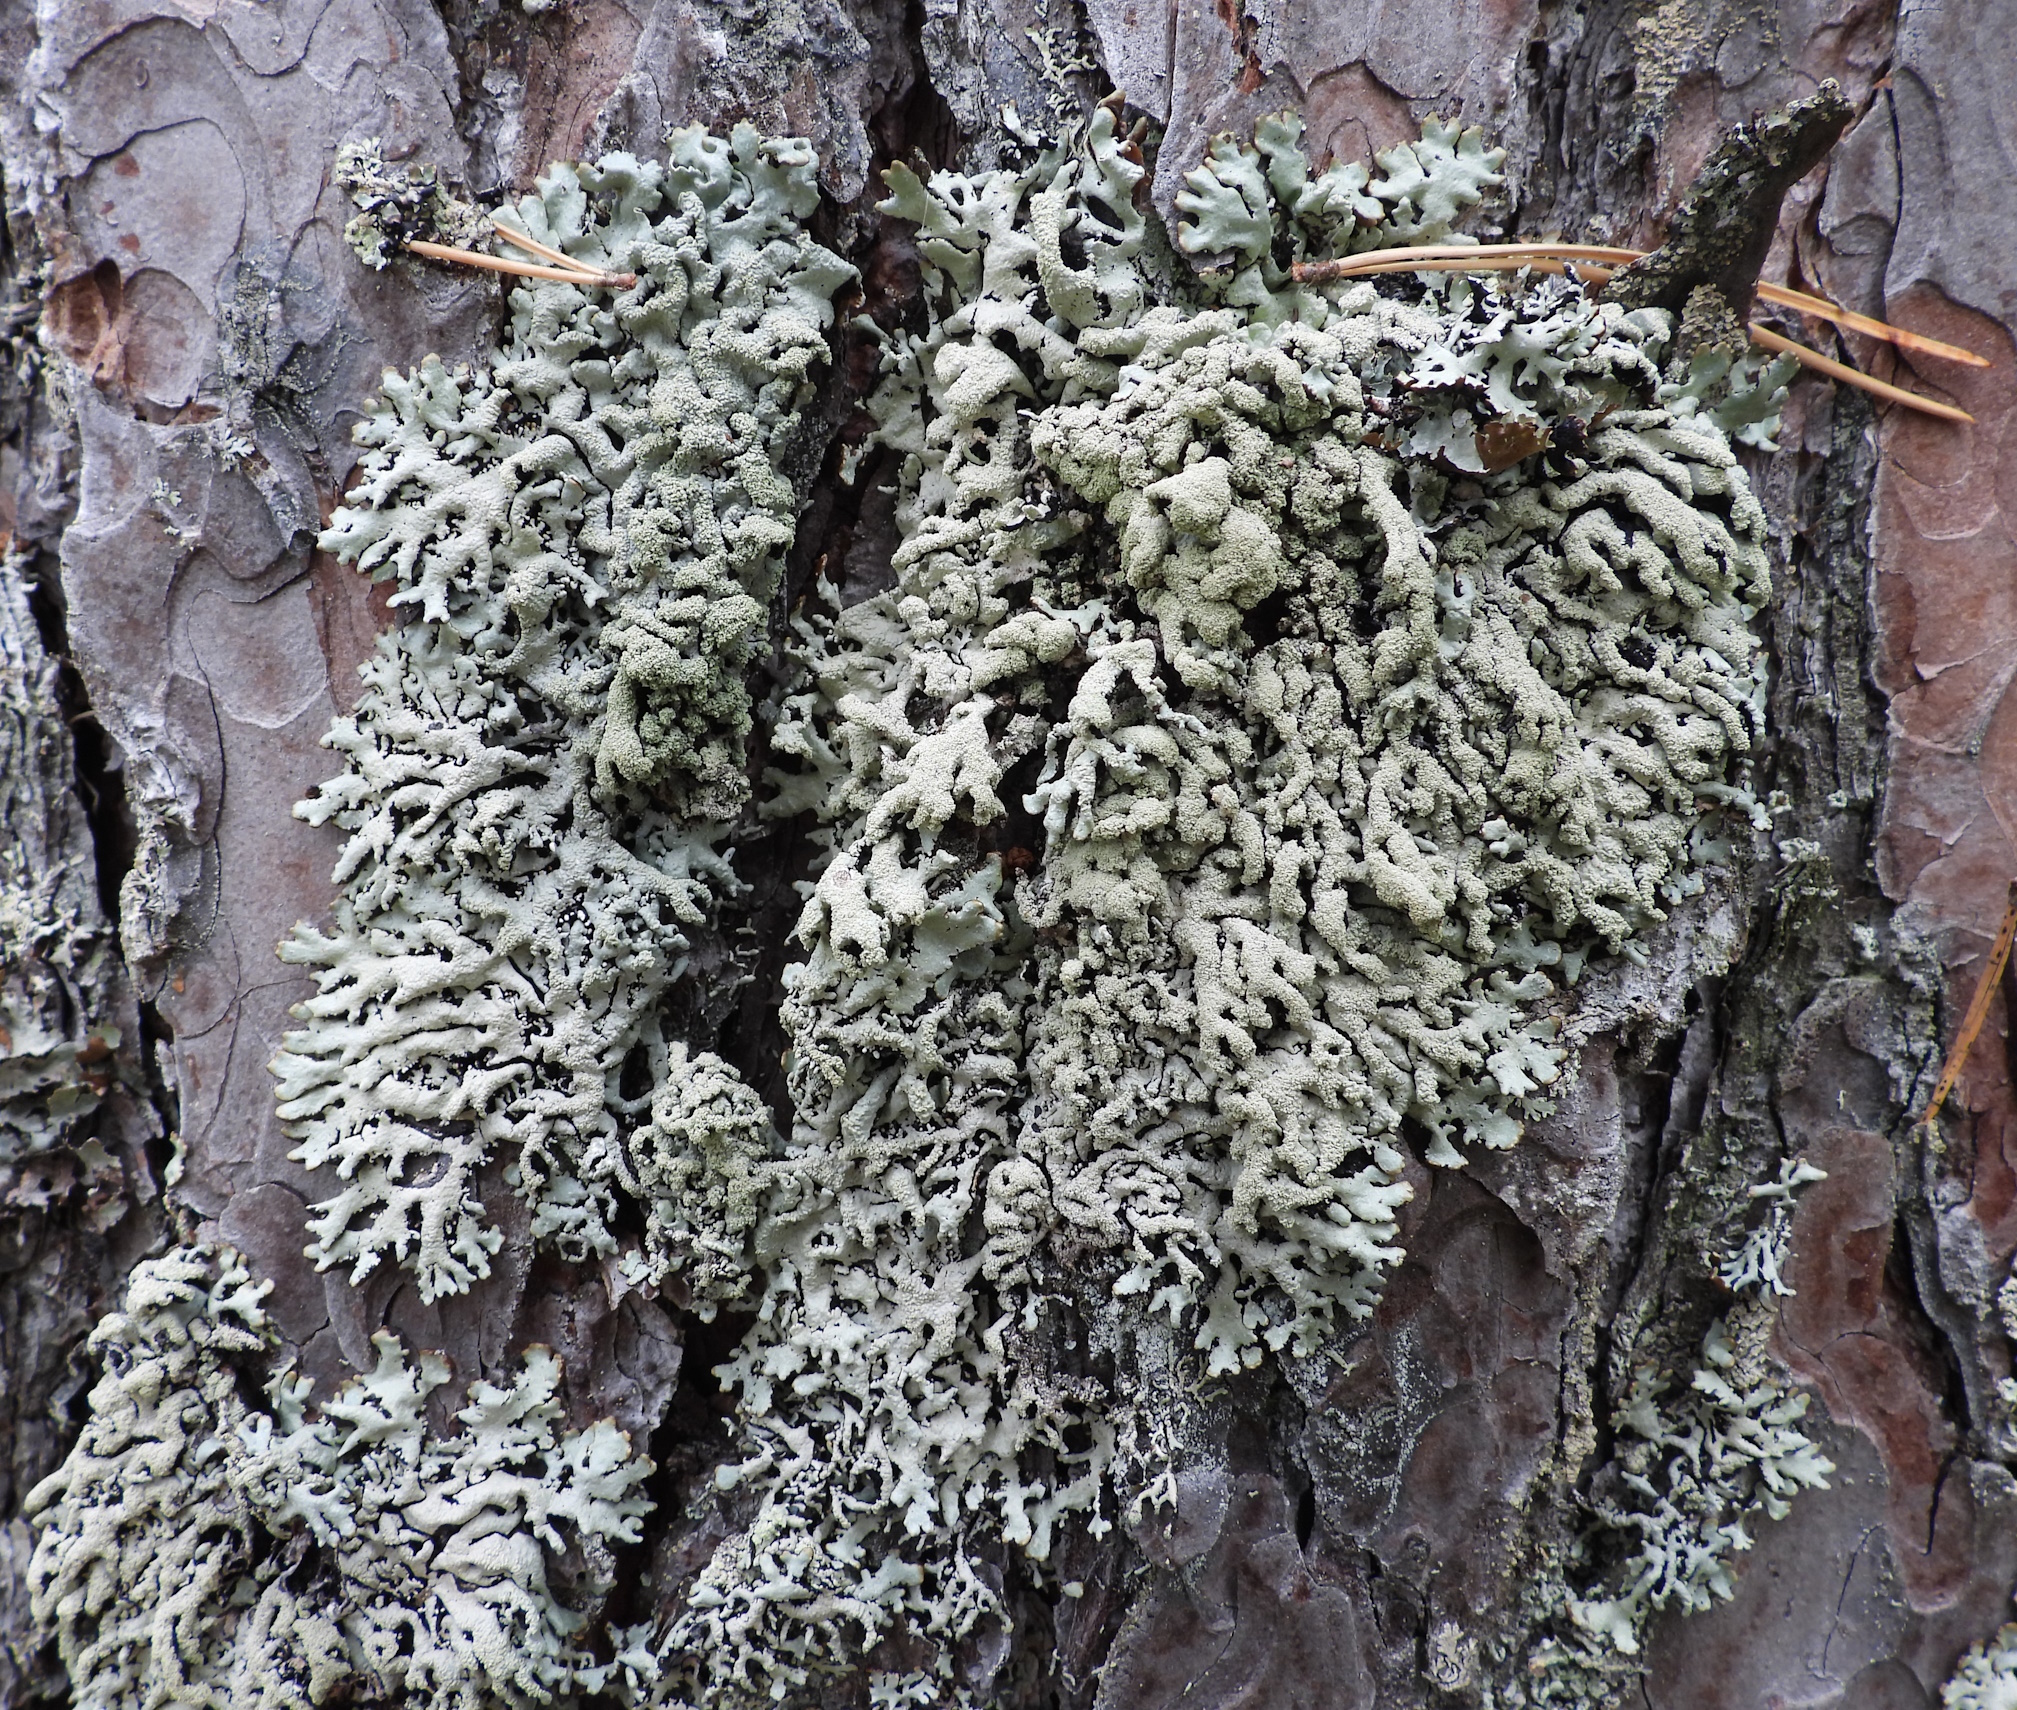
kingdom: Fungi
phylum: Ascomycota
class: Lecanoromycetes
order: Lecanorales
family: Parmeliaceae
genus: Hypogymnia
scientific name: Hypogymnia farinacea
